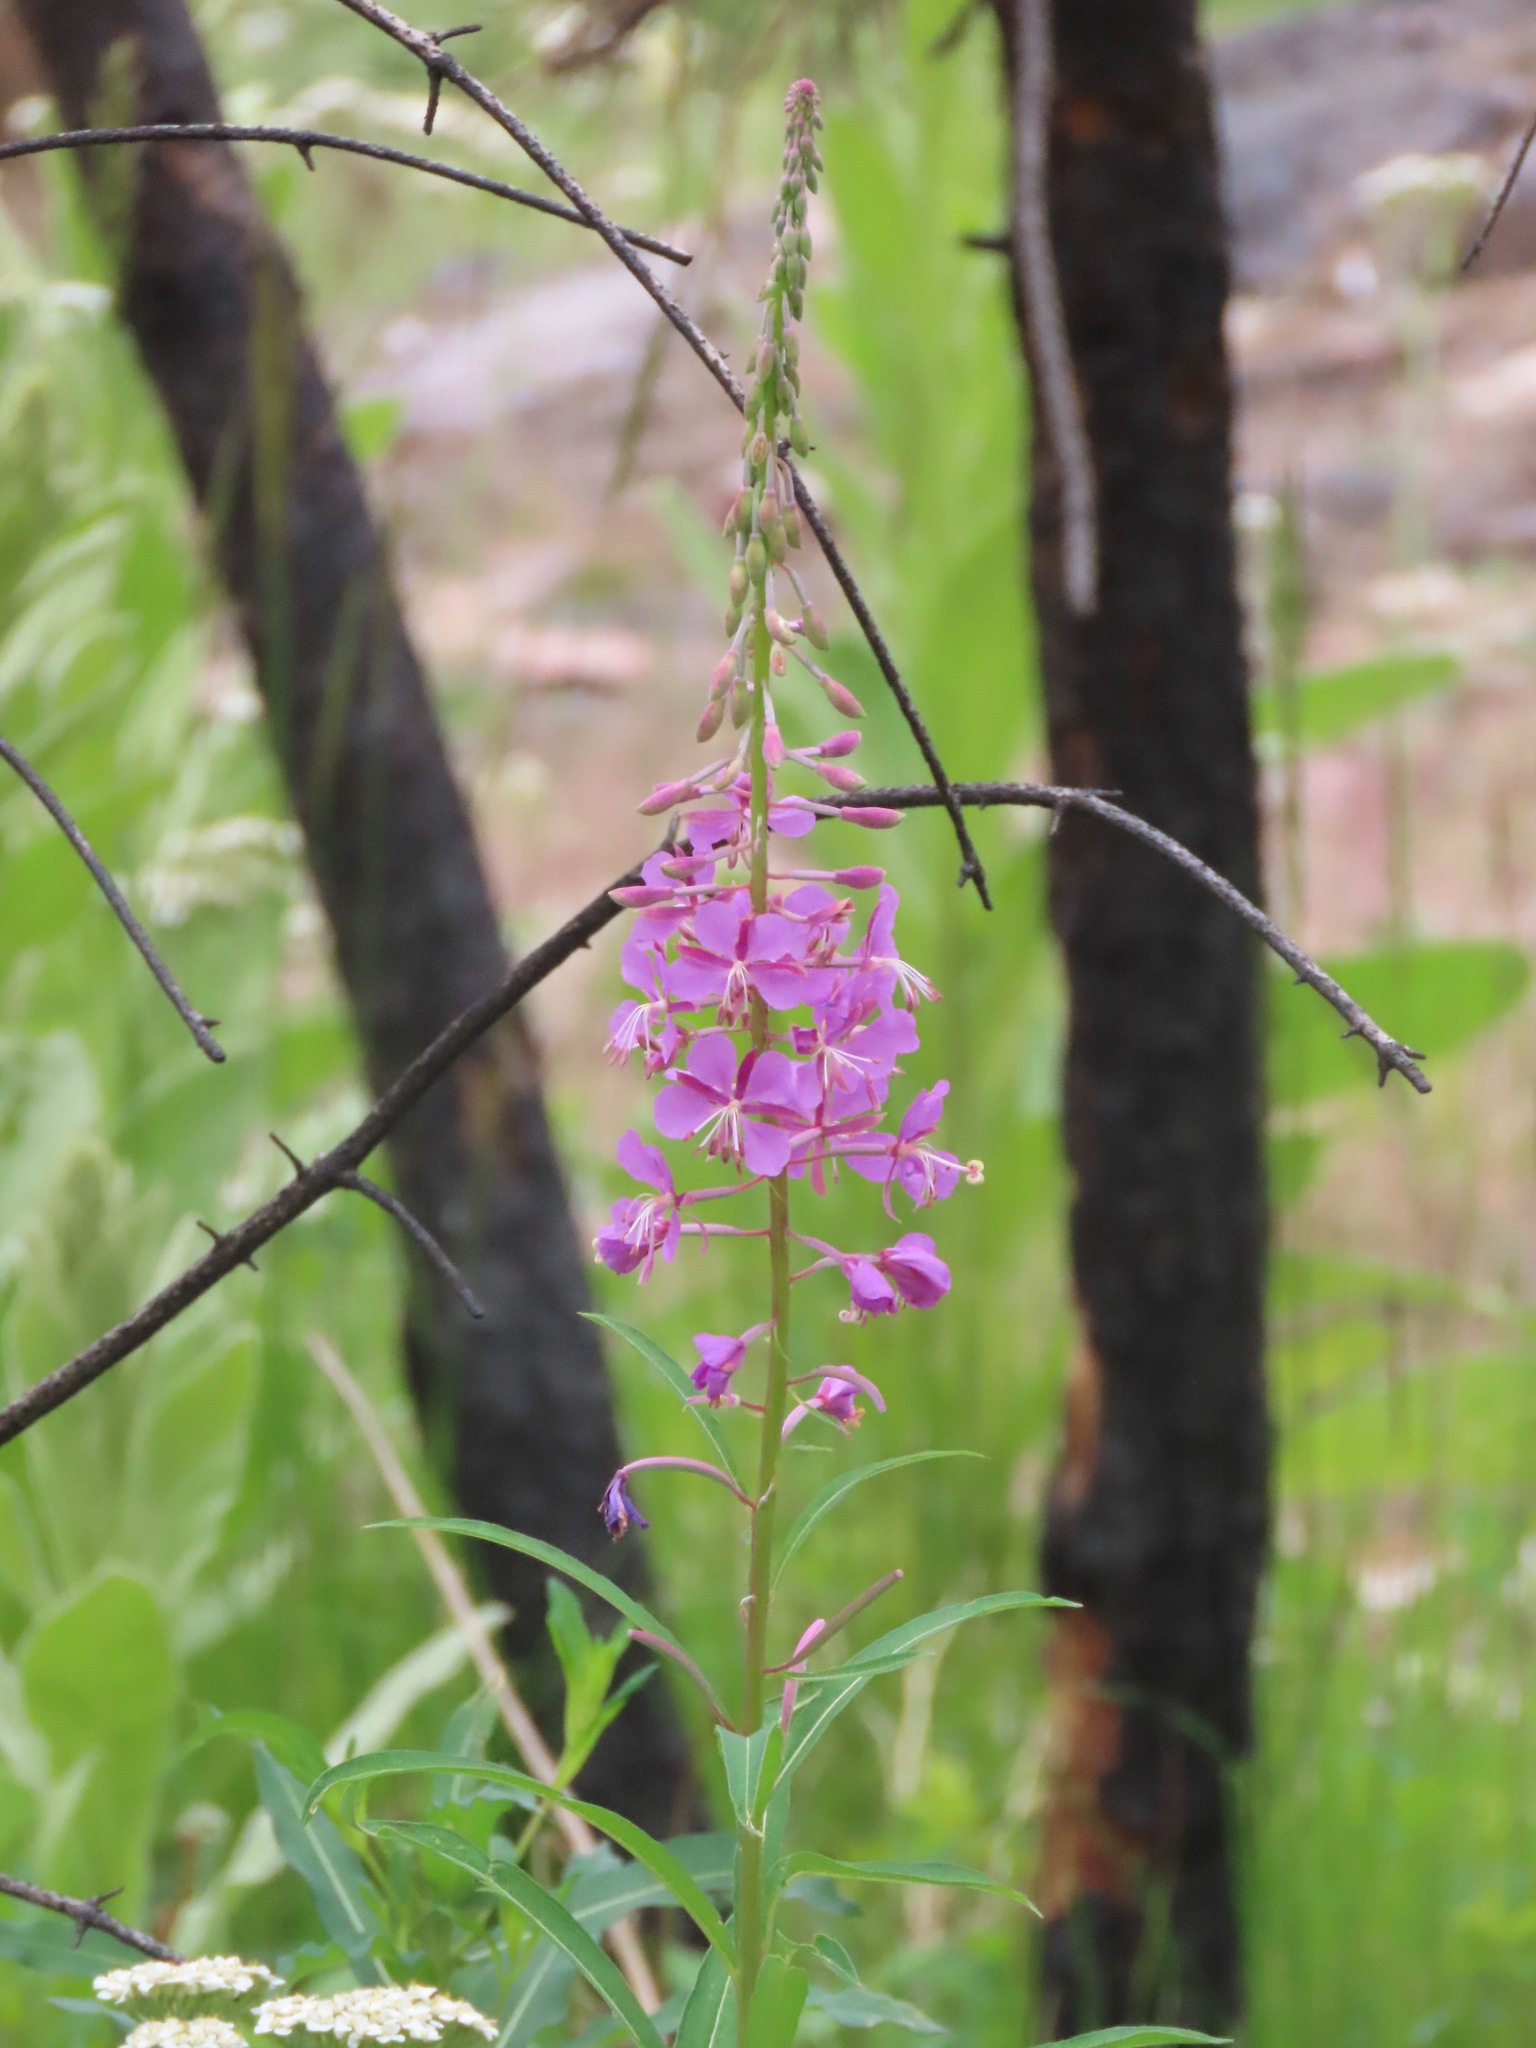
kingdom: Plantae
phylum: Tracheophyta
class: Magnoliopsida
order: Myrtales
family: Onagraceae
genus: Chamaenerion
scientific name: Chamaenerion angustifolium
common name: Fireweed
